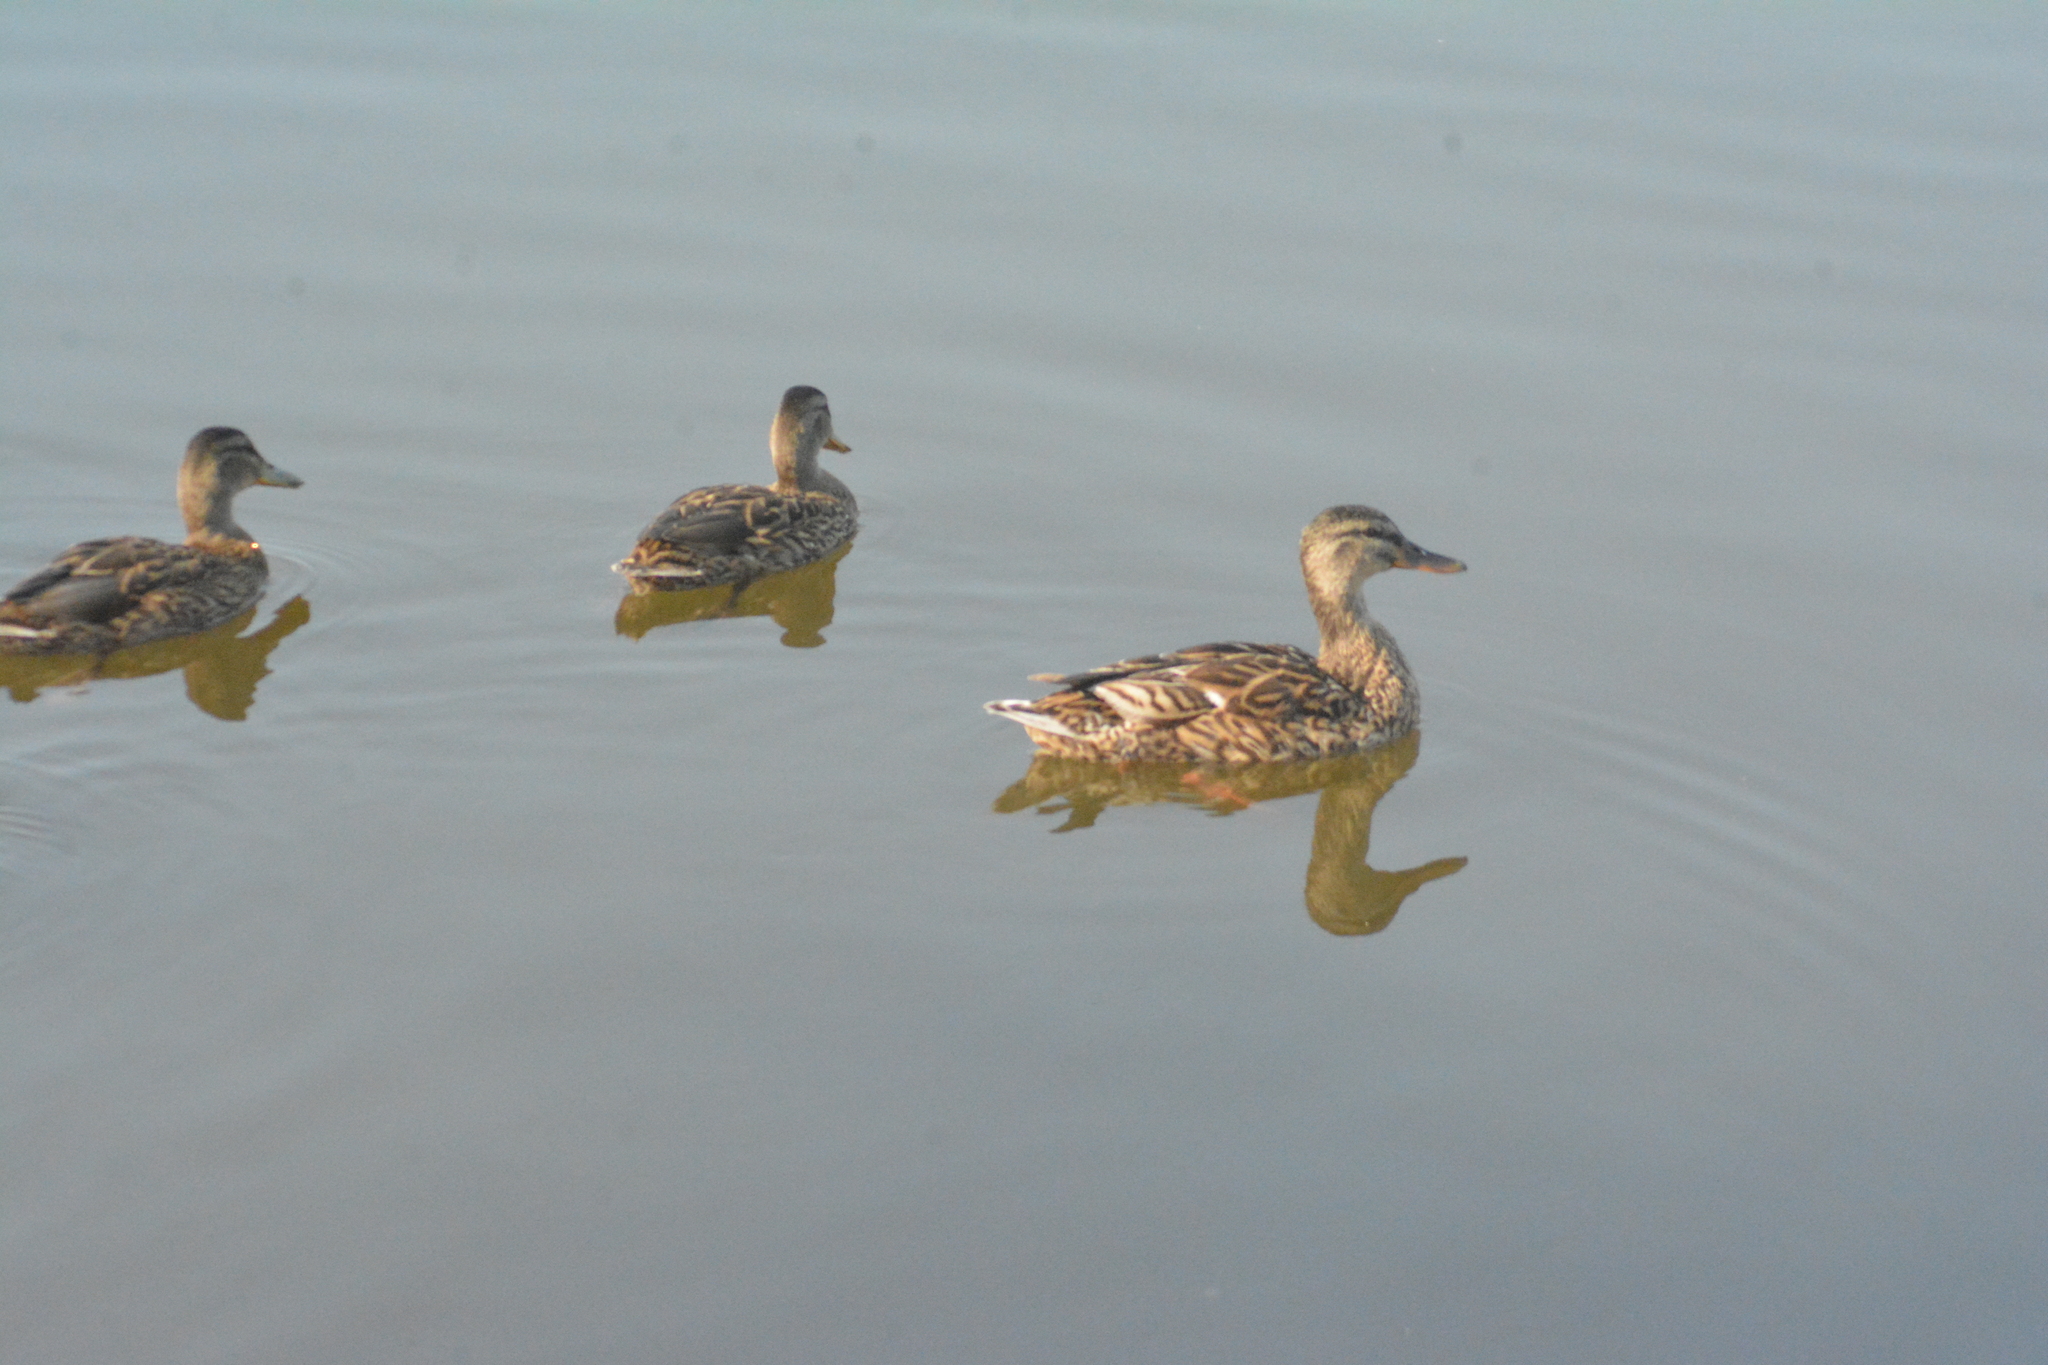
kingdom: Animalia
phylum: Chordata
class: Aves
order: Anseriformes
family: Anatidae
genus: Anas
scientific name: Anas platyrhynchos
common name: Mallard
